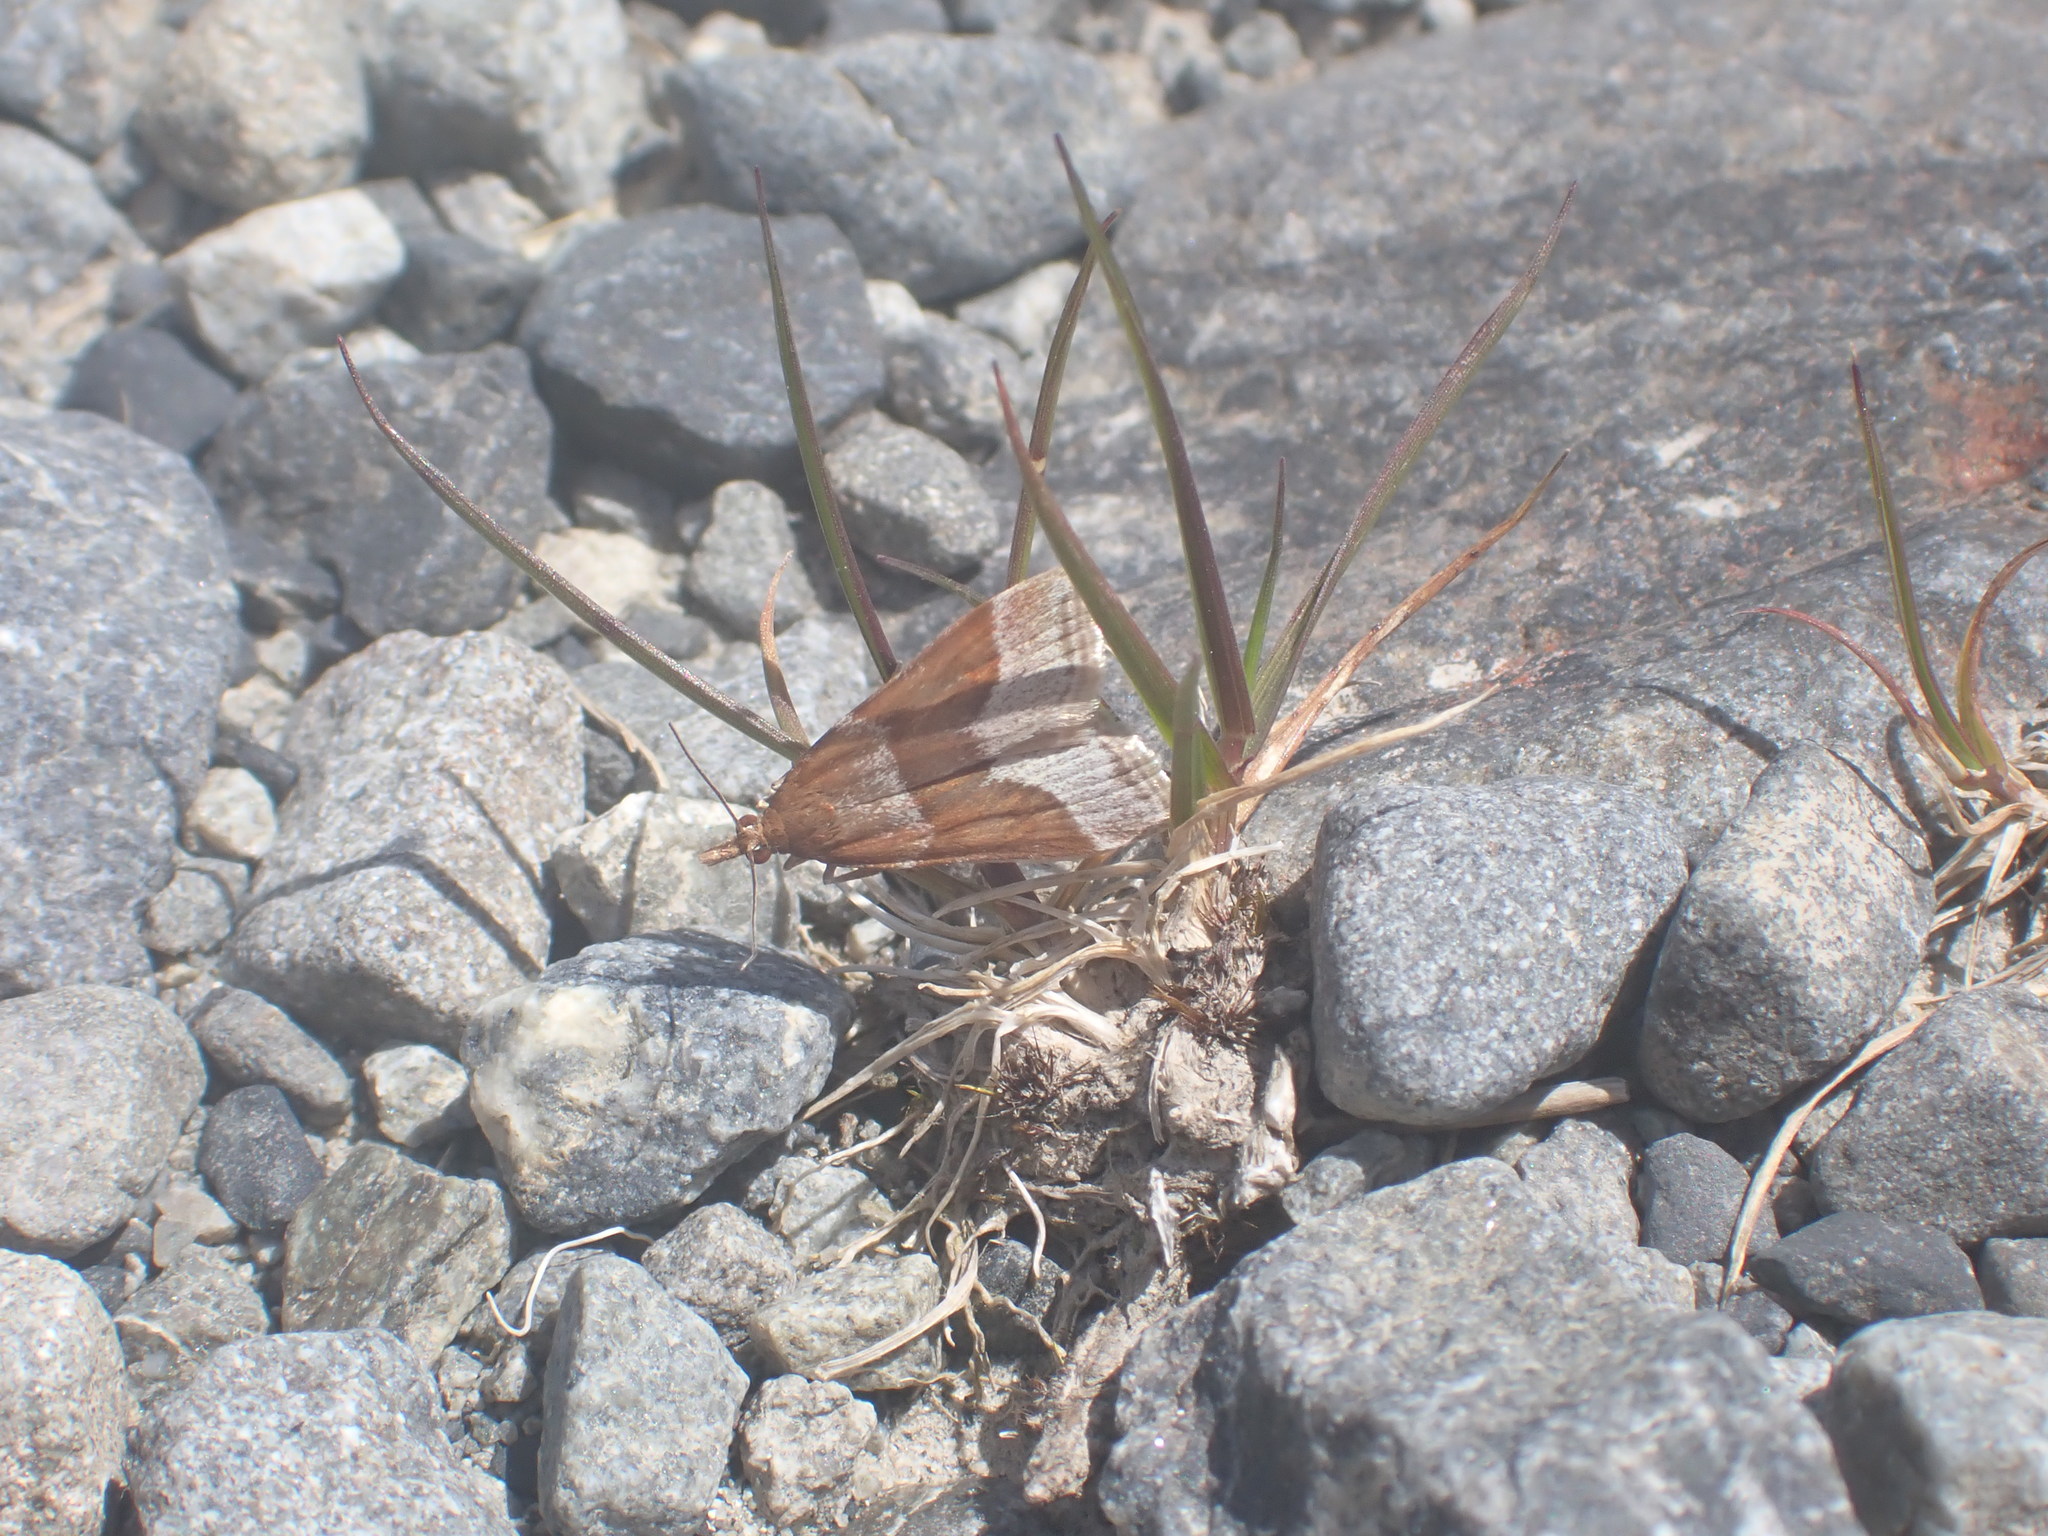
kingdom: Animalia
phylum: Arthropoda
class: Insecta
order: Lepidoptera
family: Crambidae
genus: Eudonia
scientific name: Eudonia feredayi
